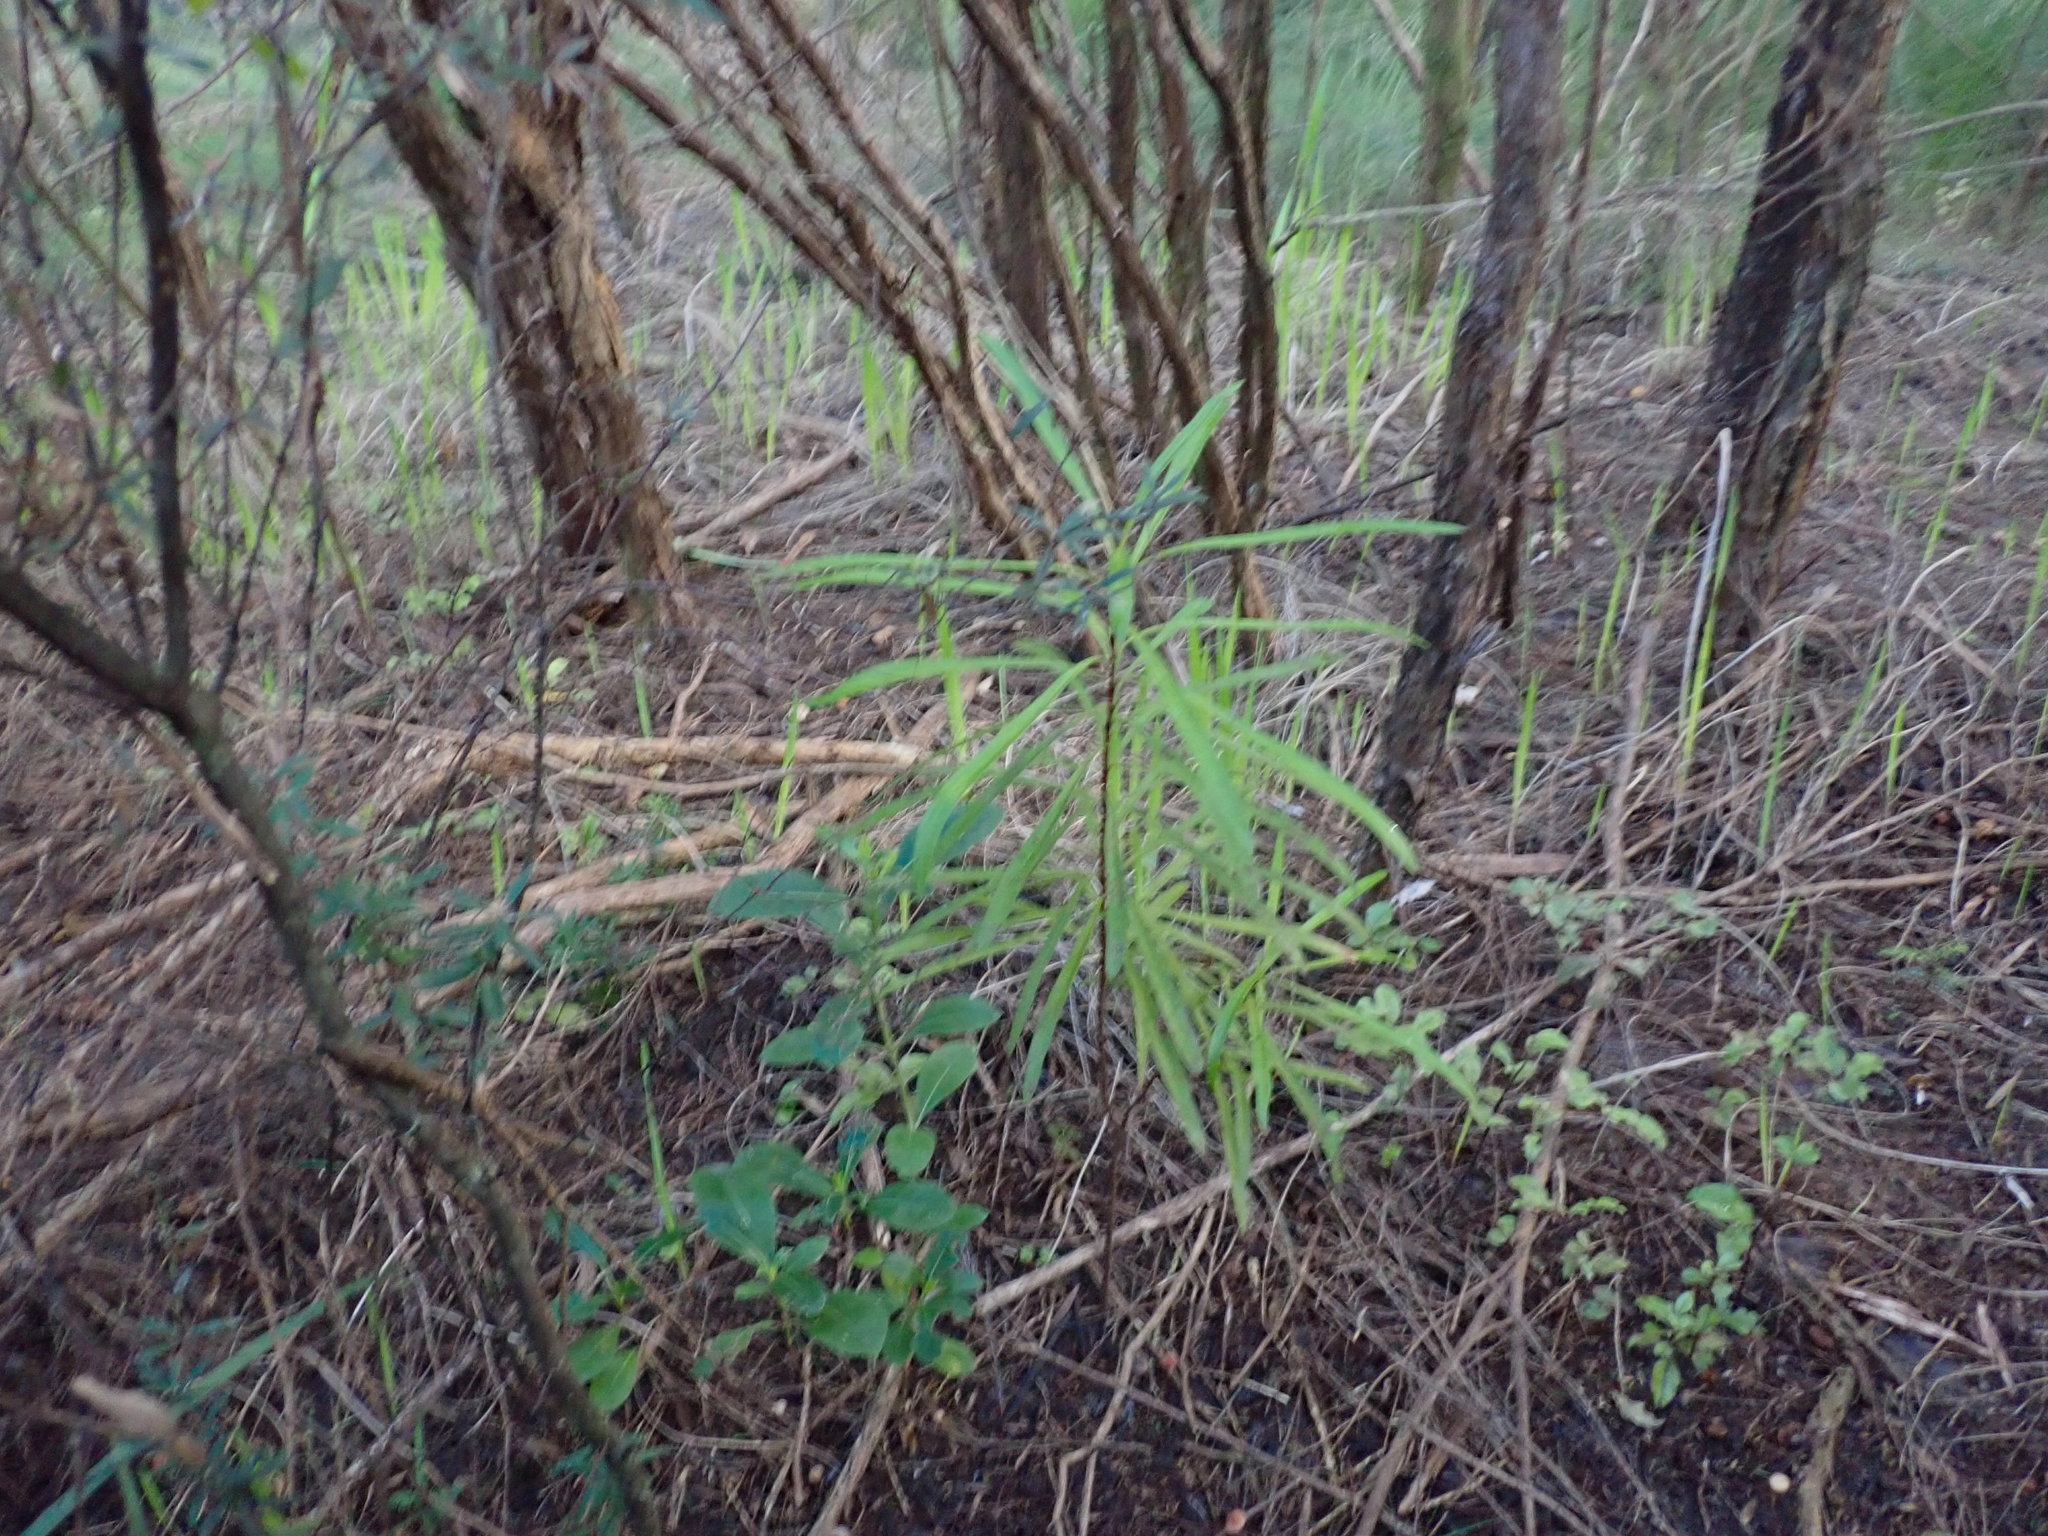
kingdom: Plantae
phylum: Tracheophyta
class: Magnoliopsida
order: Proteales
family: Proteaceae
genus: Toronia
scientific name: Toronia toru
